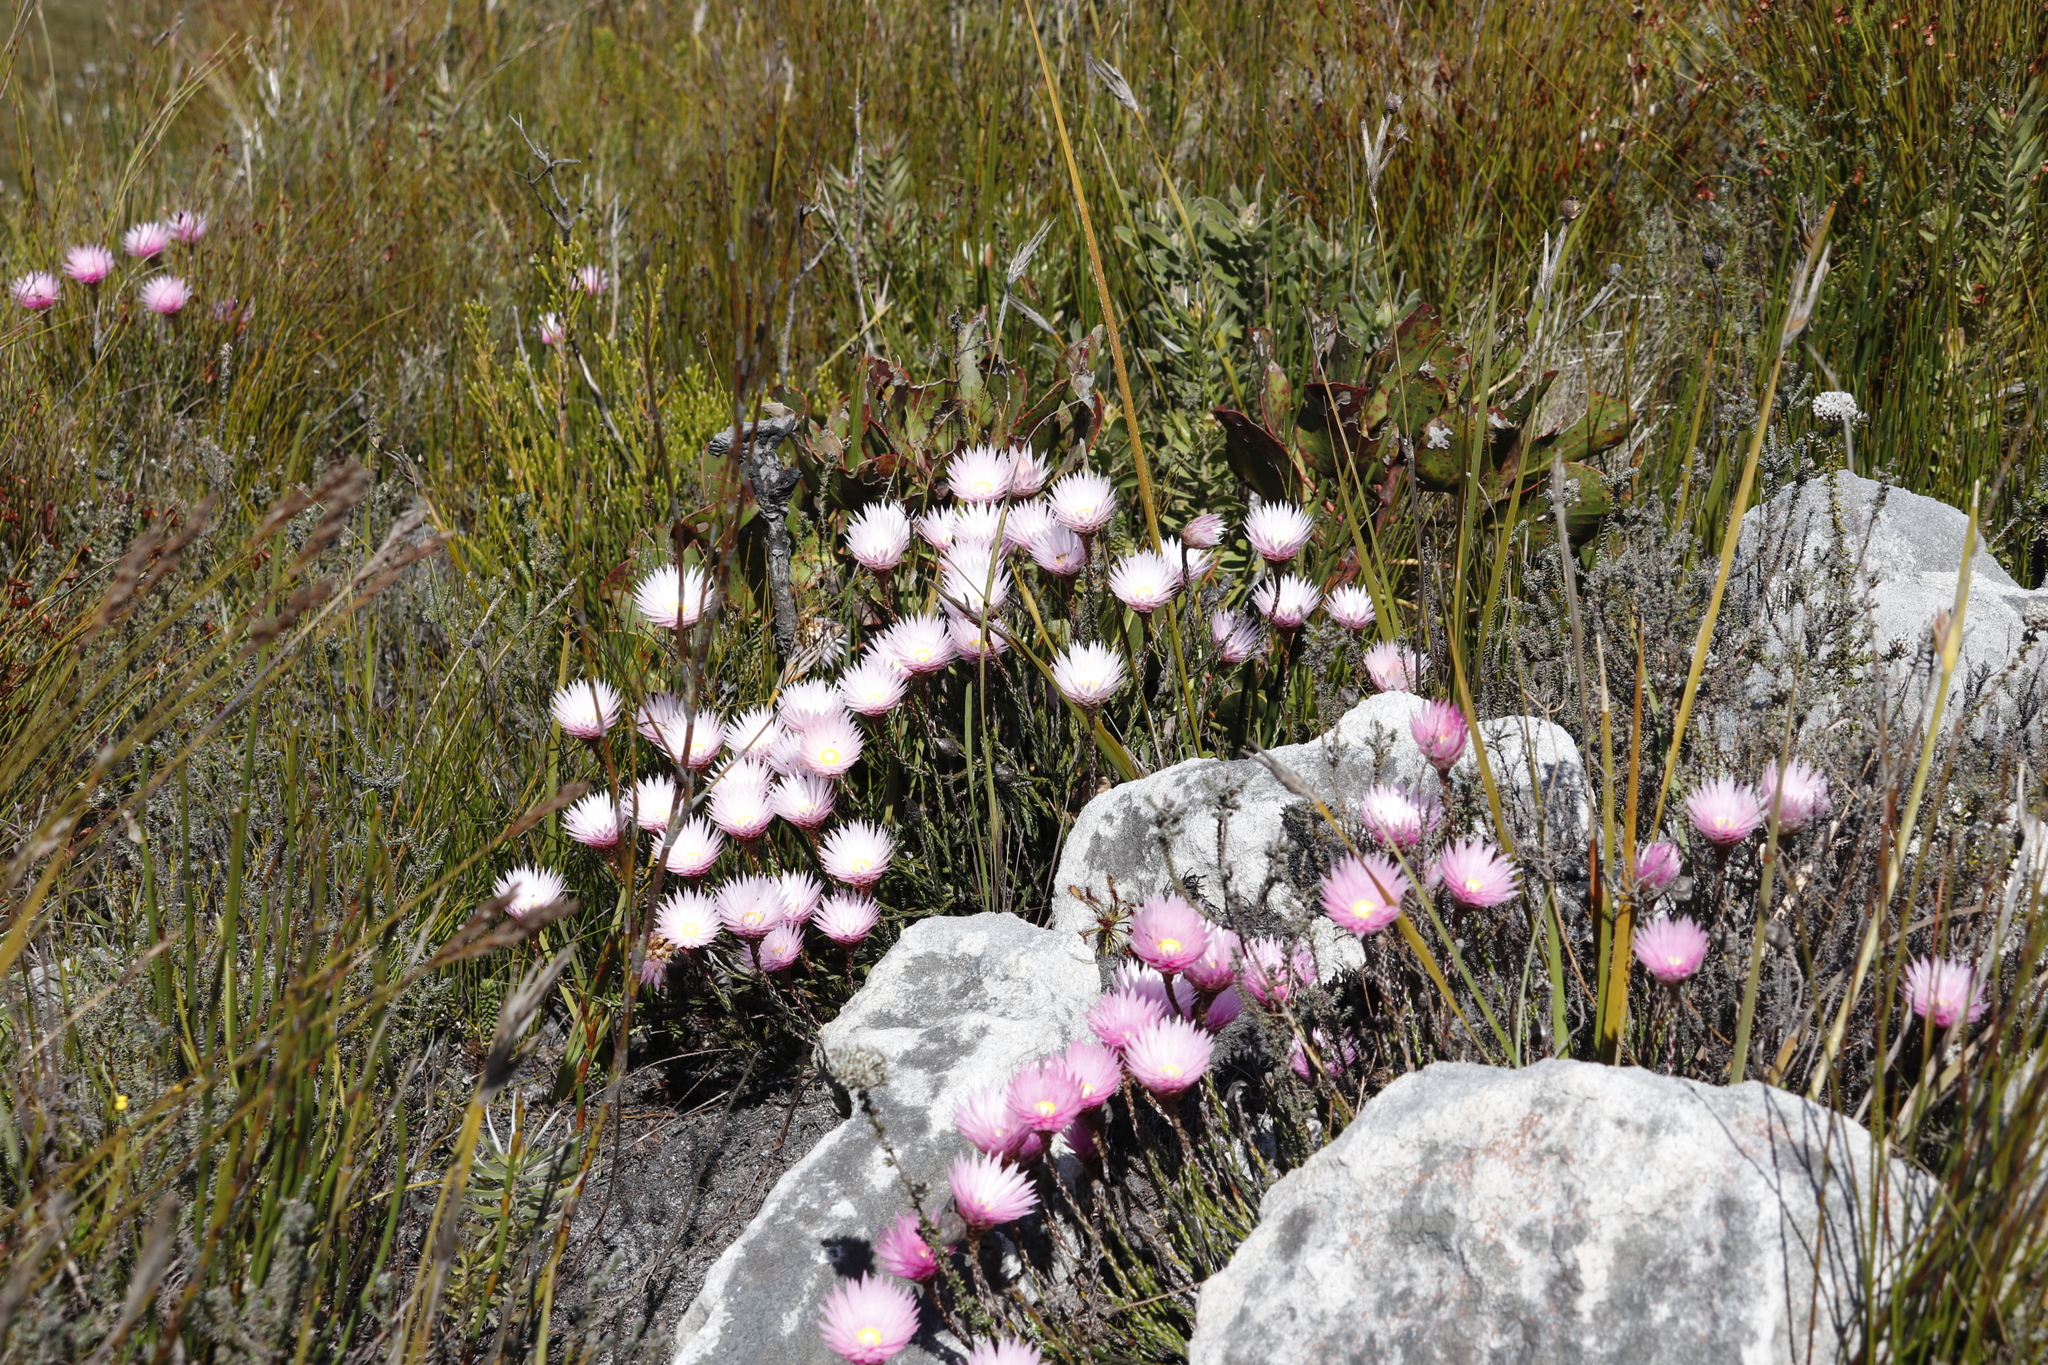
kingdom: Plantae
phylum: Tracheophyta
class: Magnoliopsida
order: Asterales
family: Asteraceae
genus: Edmondia
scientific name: Edmondia pinifolia
